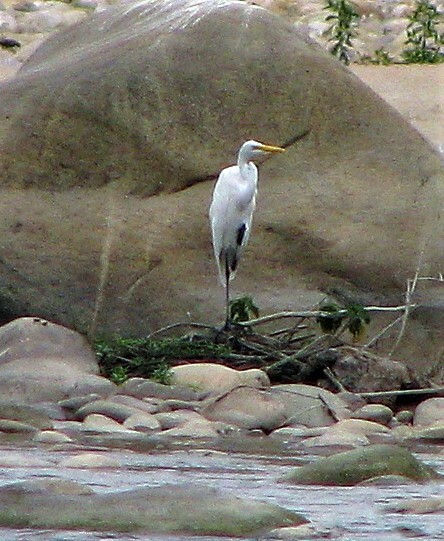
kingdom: Animalia
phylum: Chordata
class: Aves
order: Pelecaniformes
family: Ardeidae
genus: Ardea
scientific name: Ardea alba
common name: Great egret
